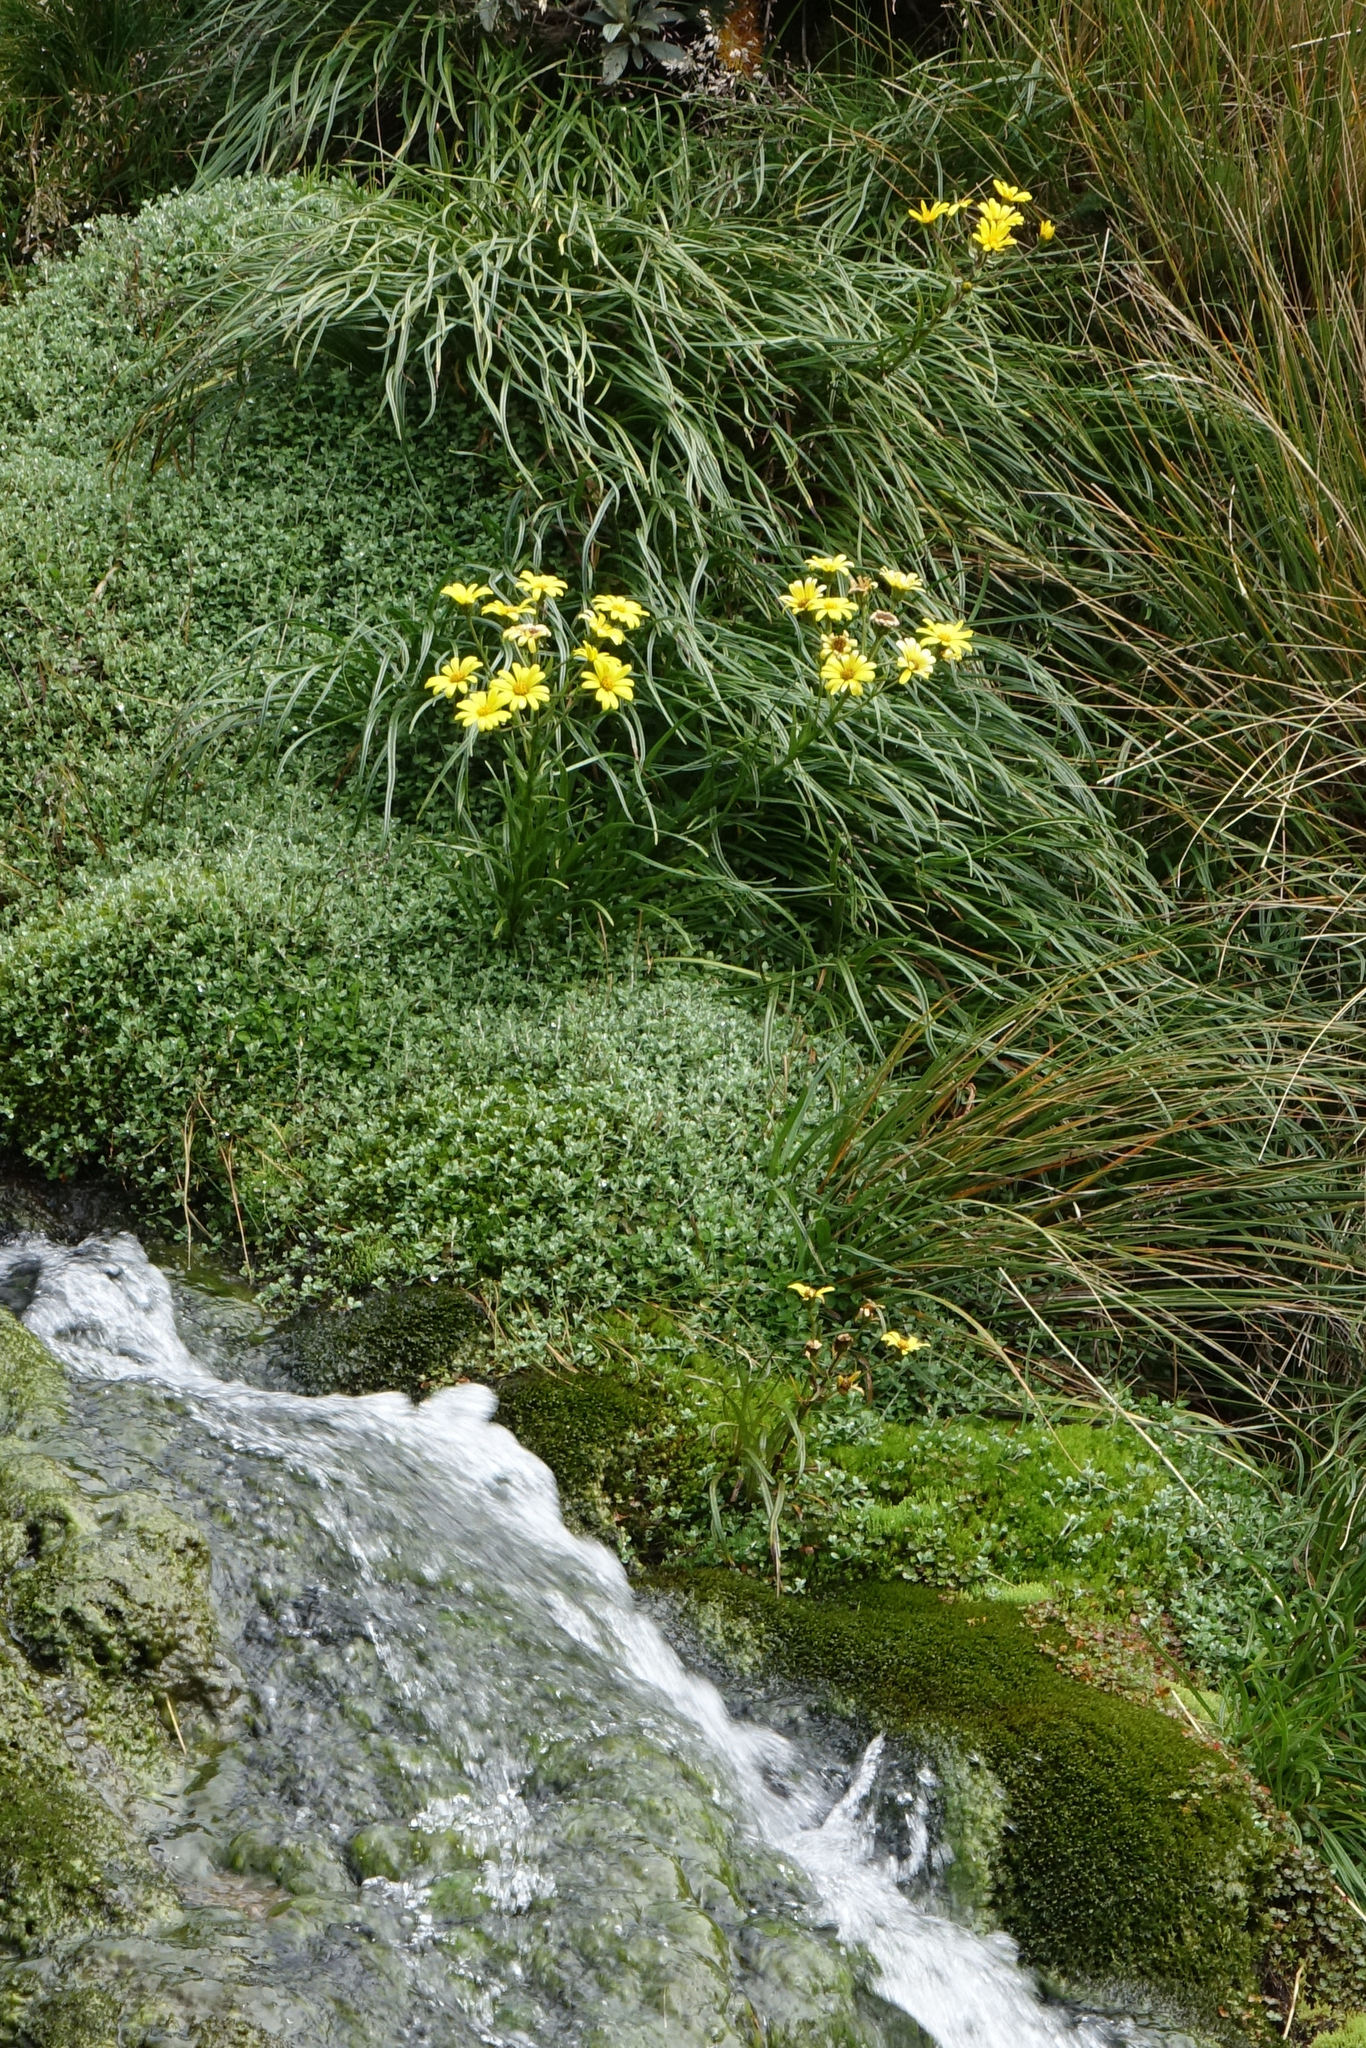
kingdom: Plantae
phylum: Tracheophyta
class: Magnoliopsida
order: Asterales
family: Asteraceae
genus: Dolichoglottis
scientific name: Dolichoglottis lyallii
